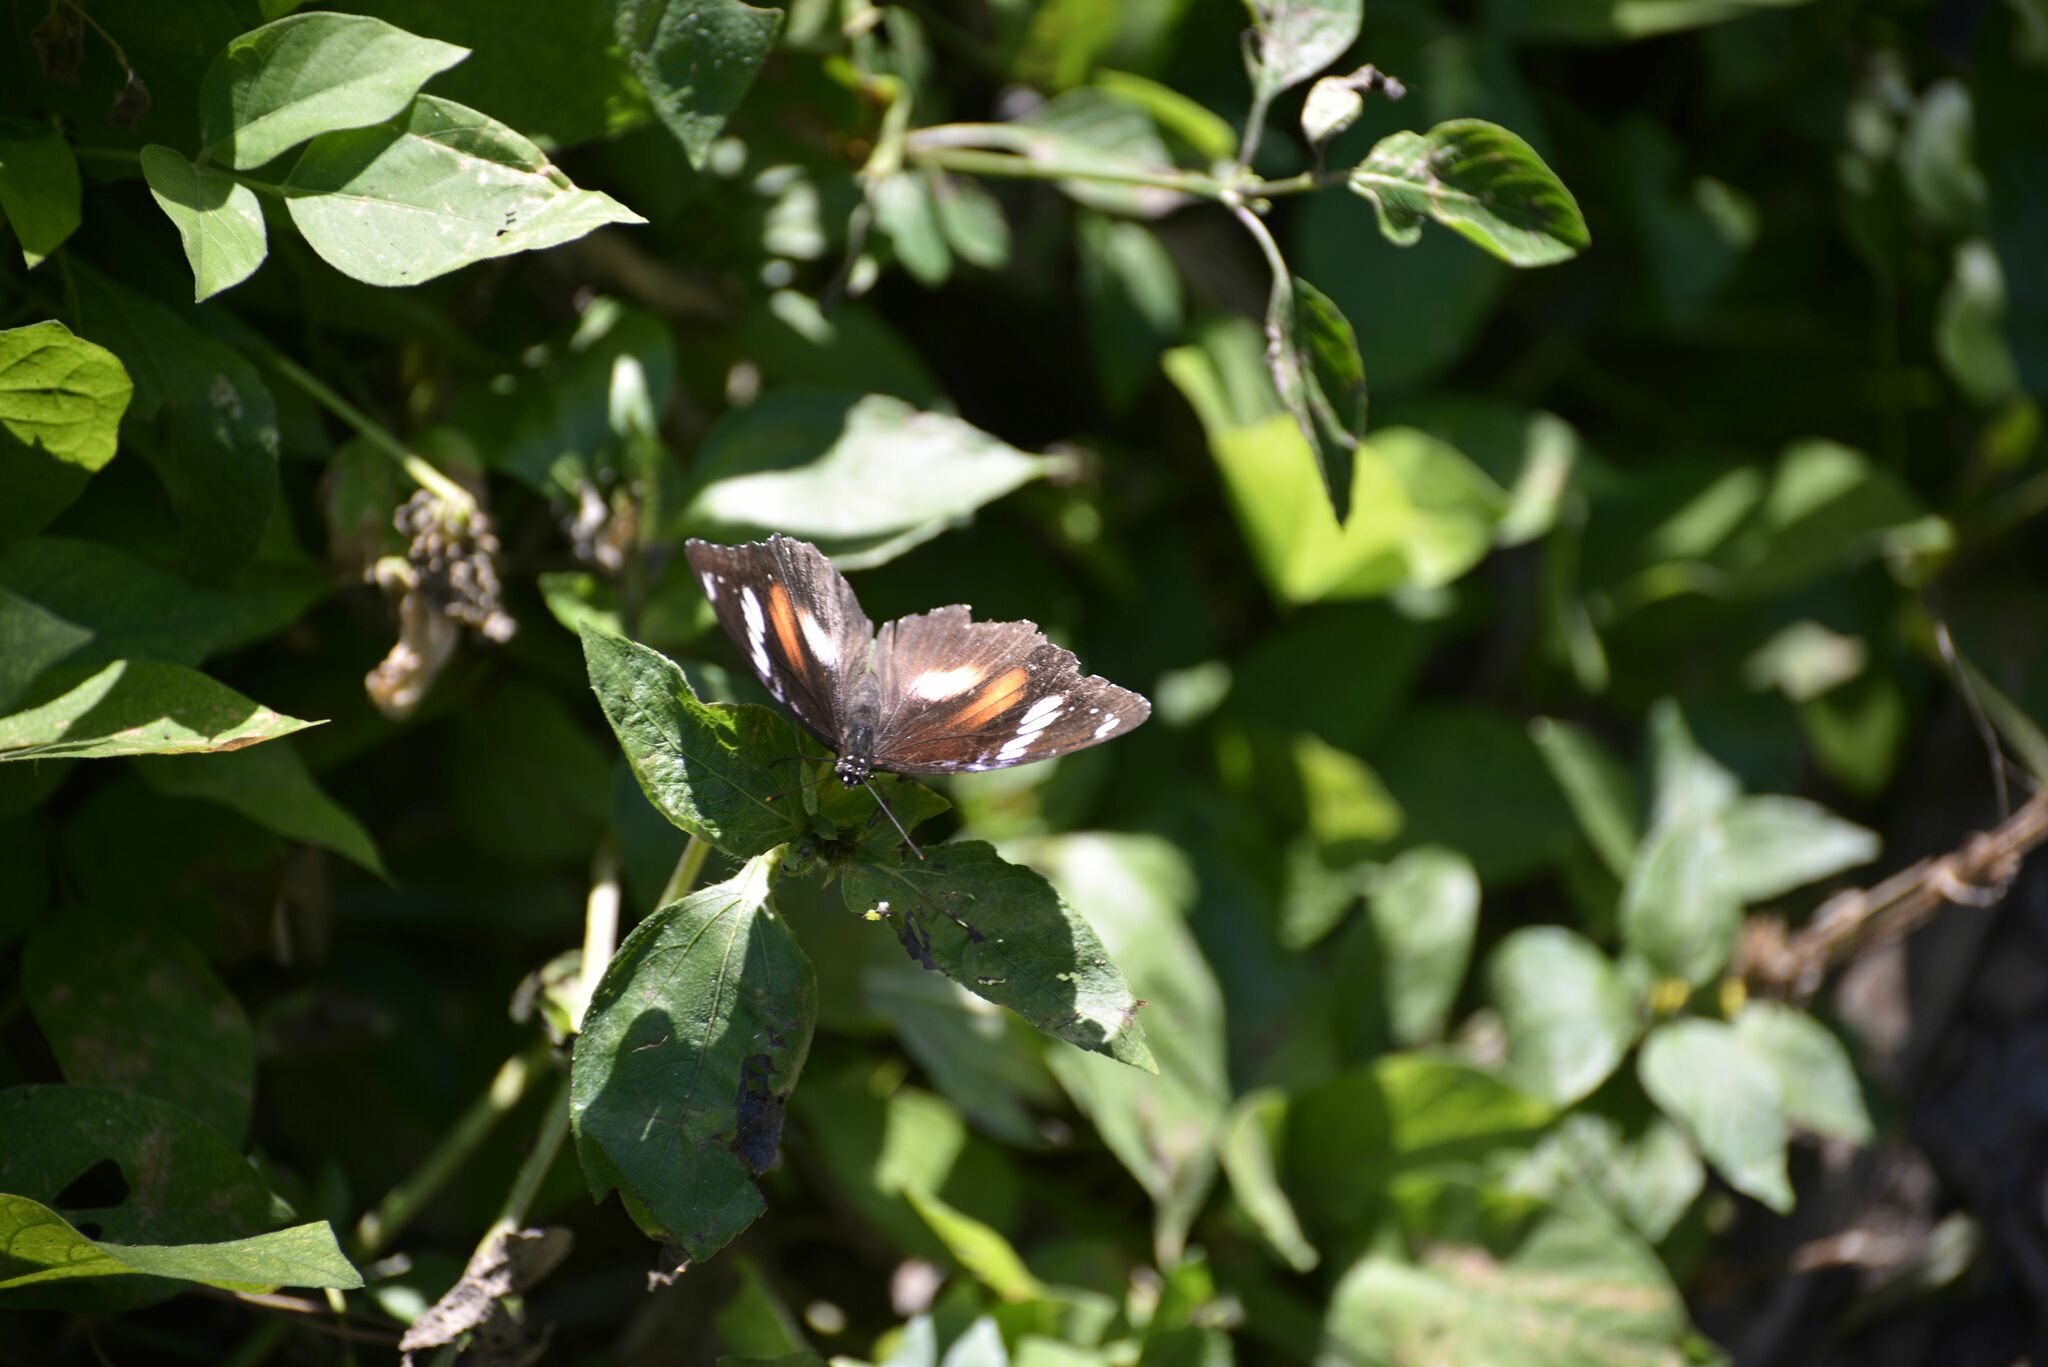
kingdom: Animalia
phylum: Arthropoda
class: Insecta
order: Lepidoptera
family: Nymphalidae
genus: Hypolimnas
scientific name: Hypolimnas bolina
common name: Great eggfly
